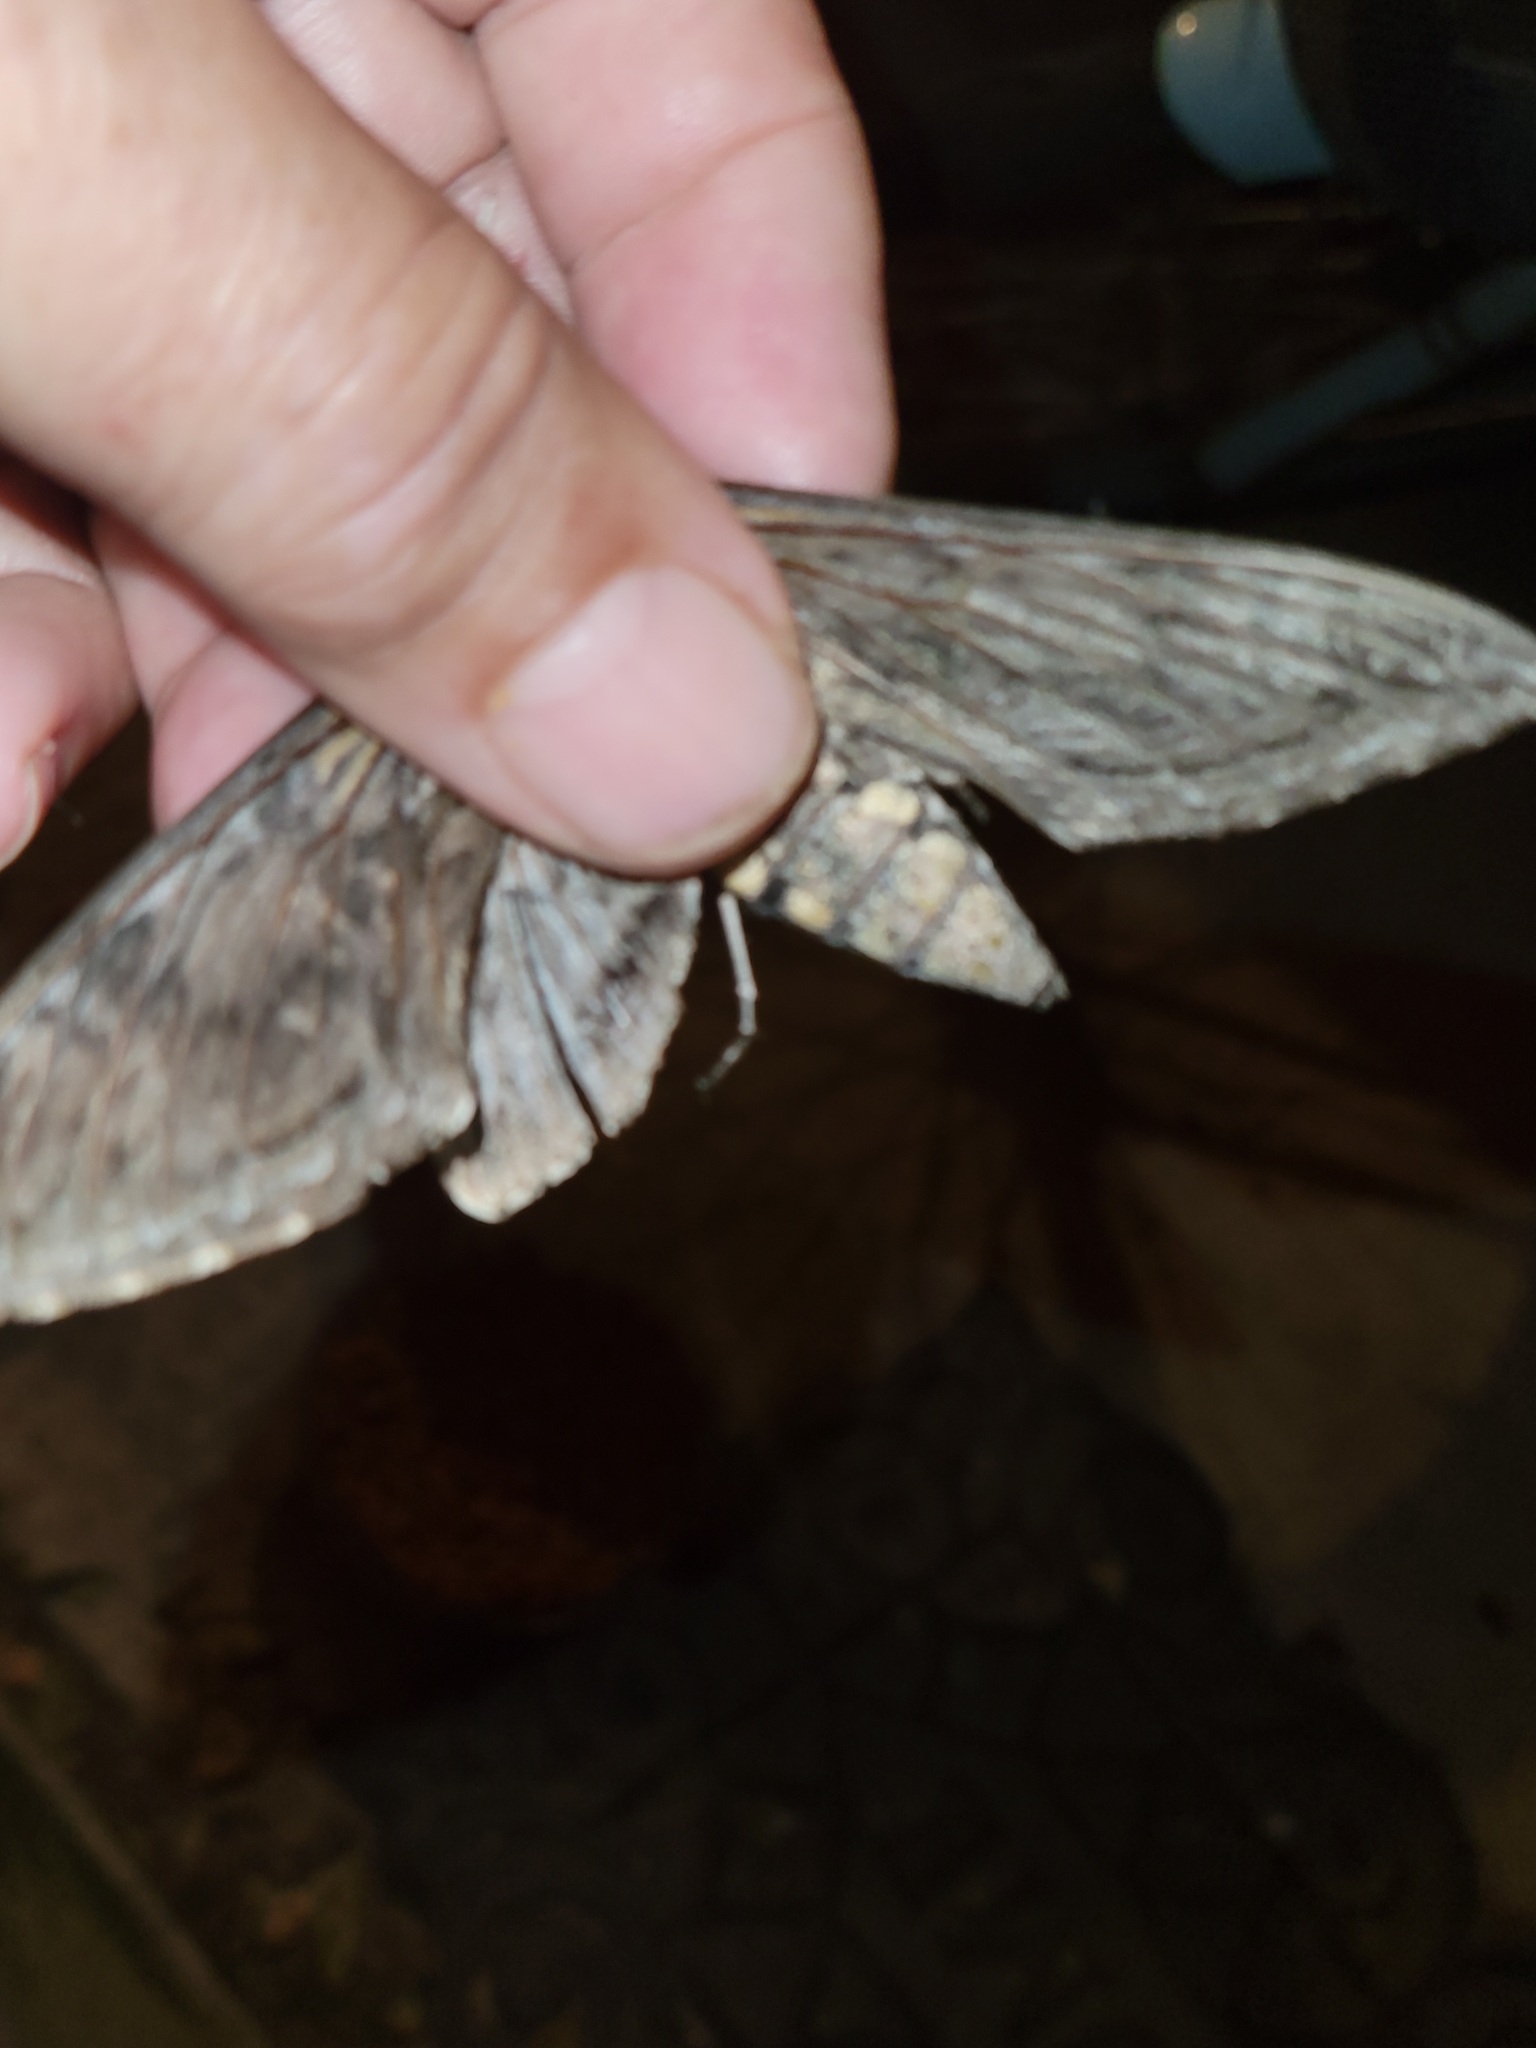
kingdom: Animalia
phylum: Arthropoda
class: Insecta
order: Lepidoptera
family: Sphingidae
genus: Manduca
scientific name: Manduca quinquemaculatus
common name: Five-spotted hawk-moth
